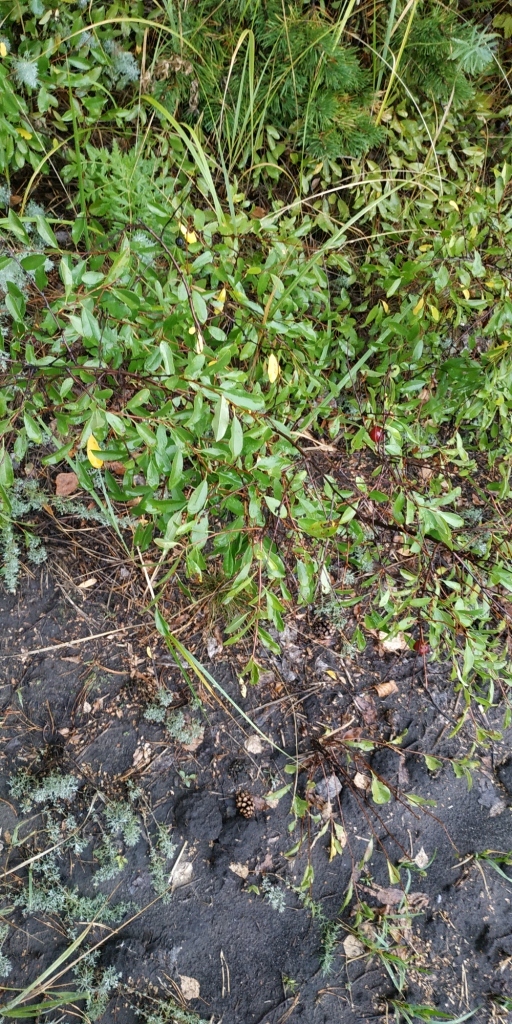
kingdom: Plantae
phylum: Tracheophyta
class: Magnoliopsida
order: Rosales
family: Rosaceae
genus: Prunus
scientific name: Prunus fruticosa
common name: European dwarf cherry
